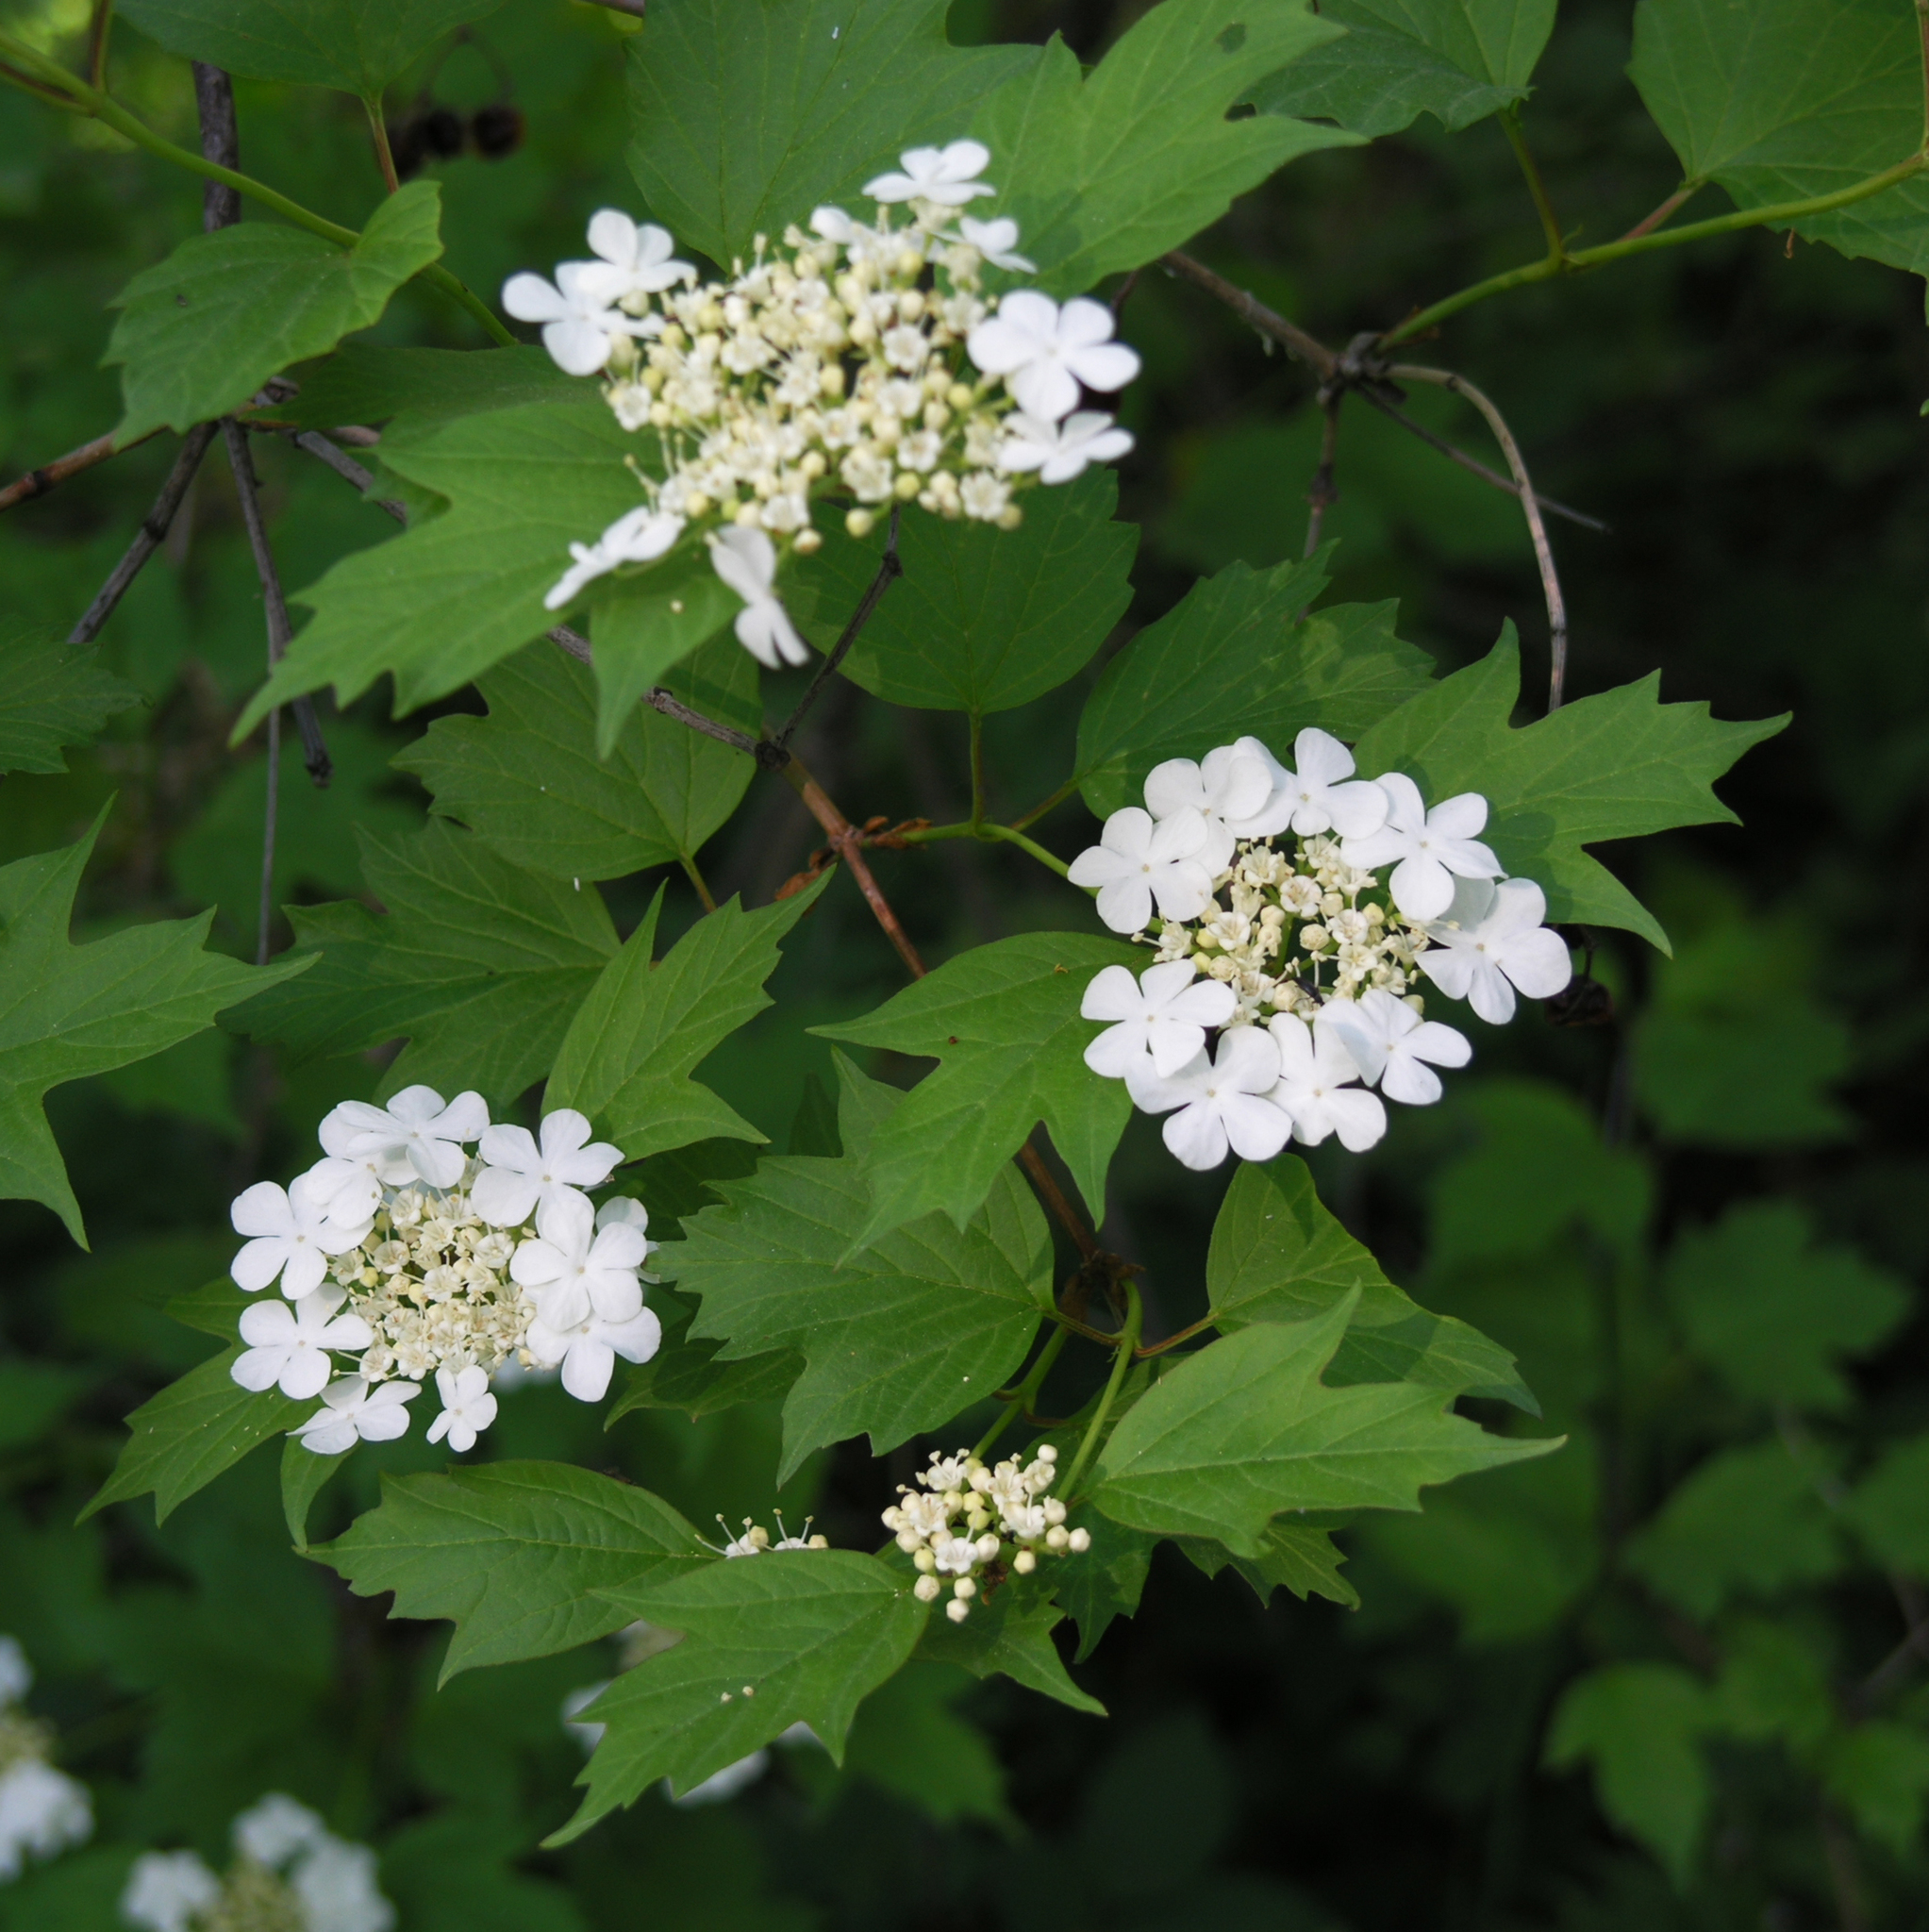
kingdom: Plantae
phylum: Tracheophyta
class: Magnoliopsida
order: Dipsacales
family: Viburnaceae
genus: Viburnum
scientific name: Viburnum opulus
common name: Guelder-rose
